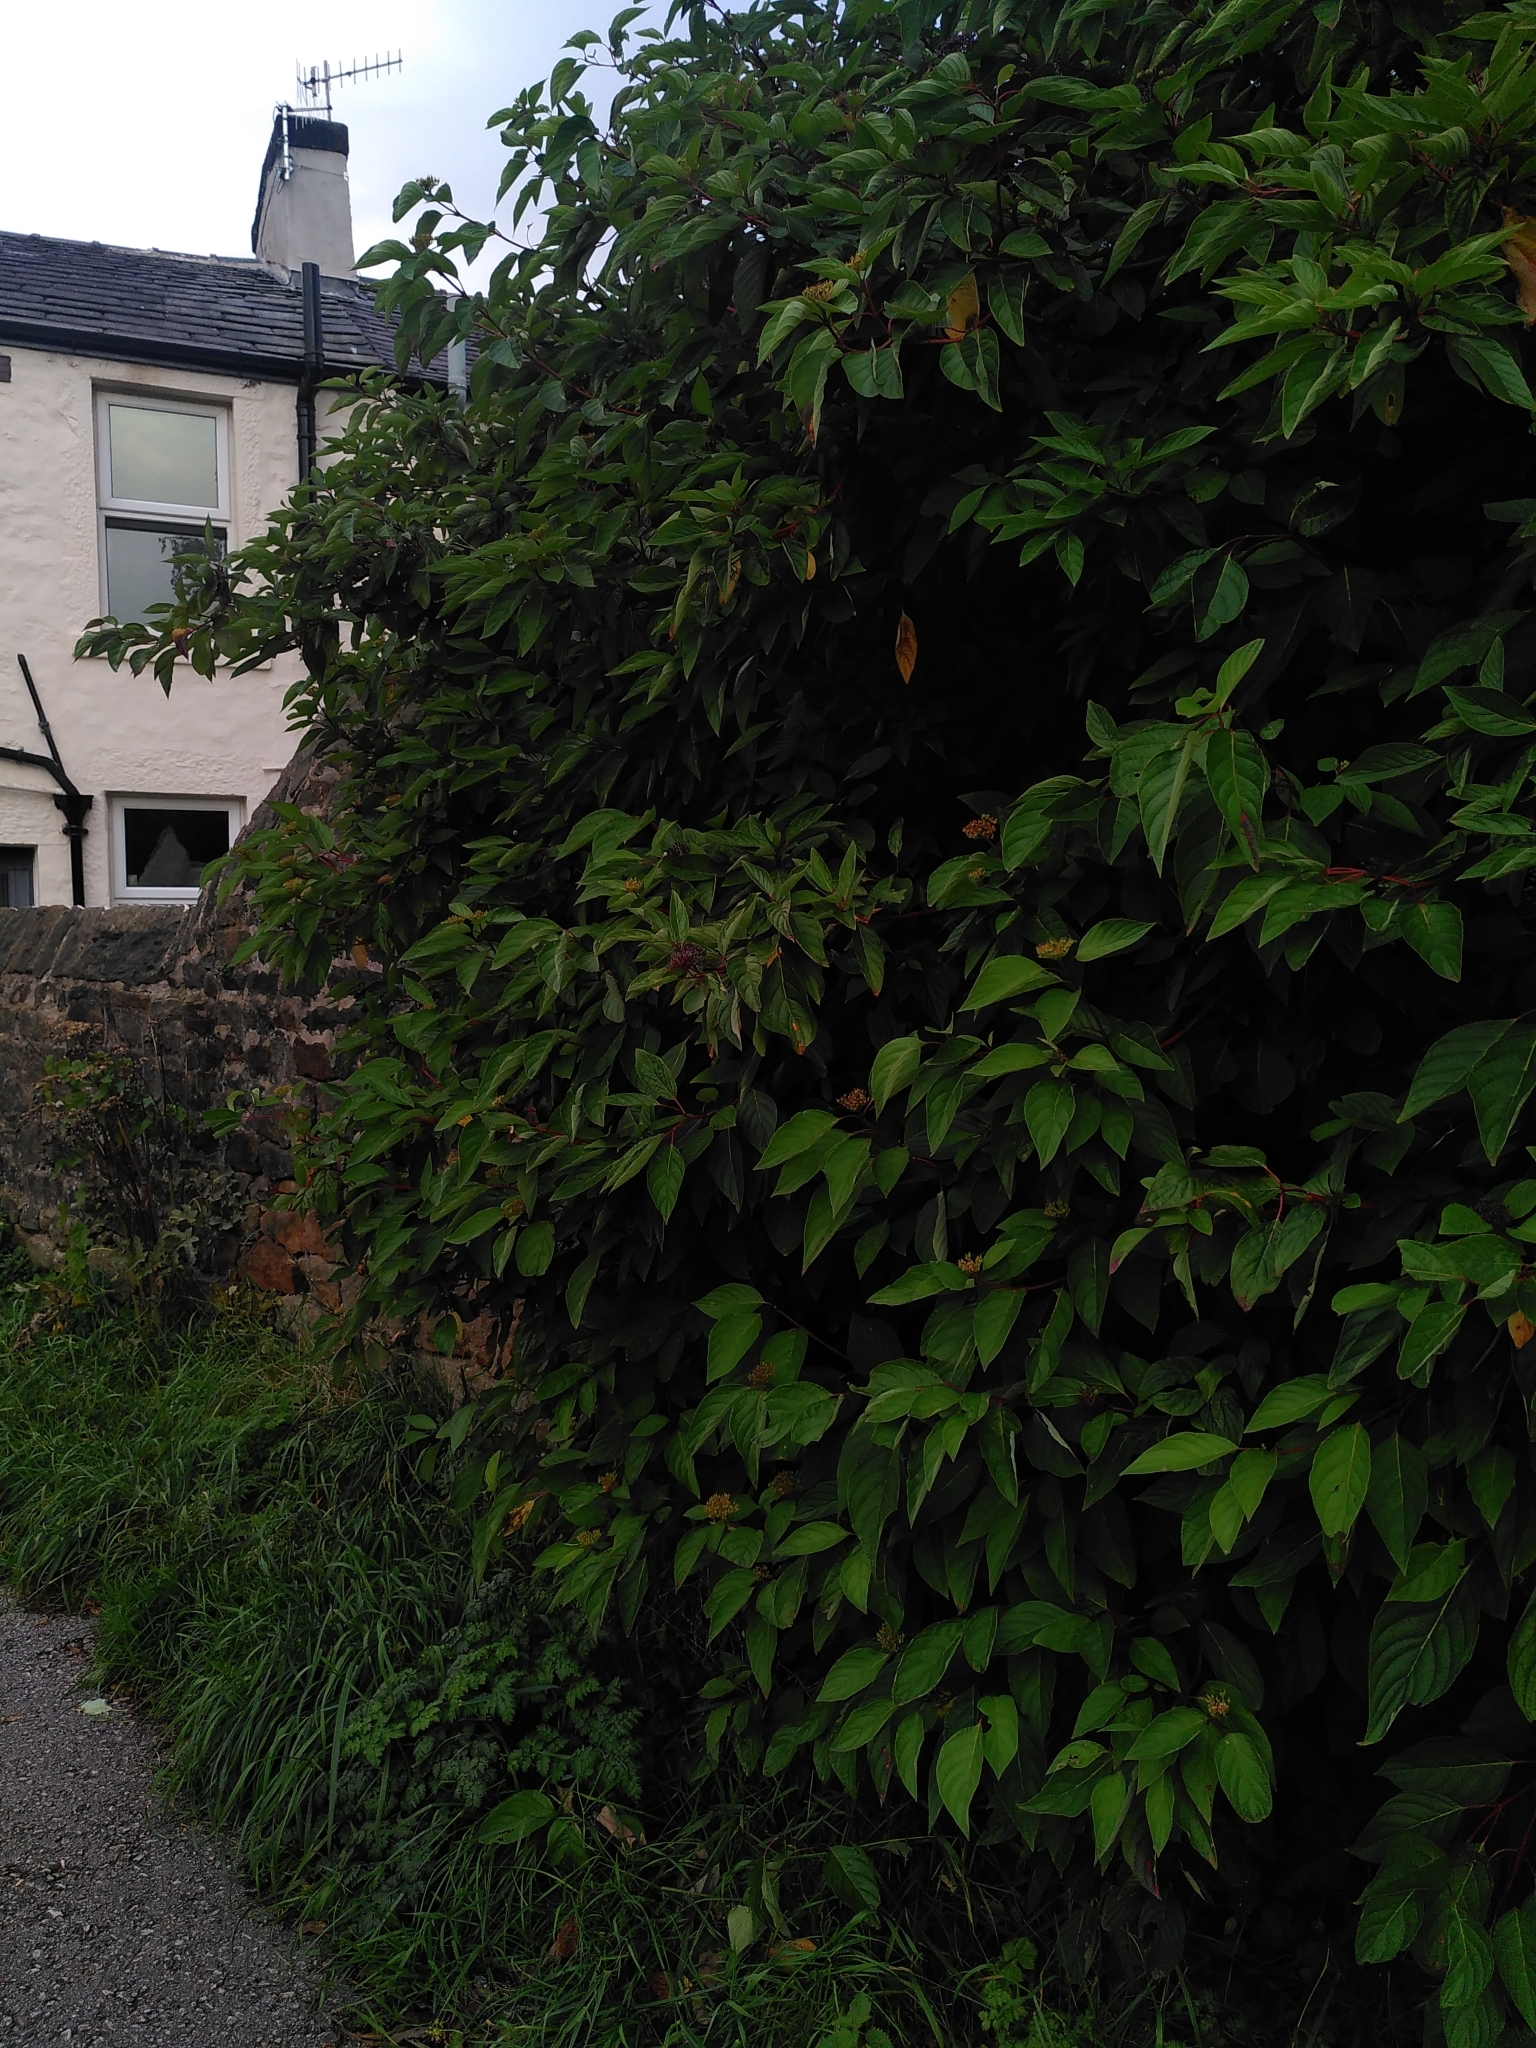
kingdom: Plantae
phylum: Tracheophyta
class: Magnoliopsida
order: Cornales
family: Cornaceae
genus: Cornus
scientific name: Cornus sericea
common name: Red-osier dogwood
